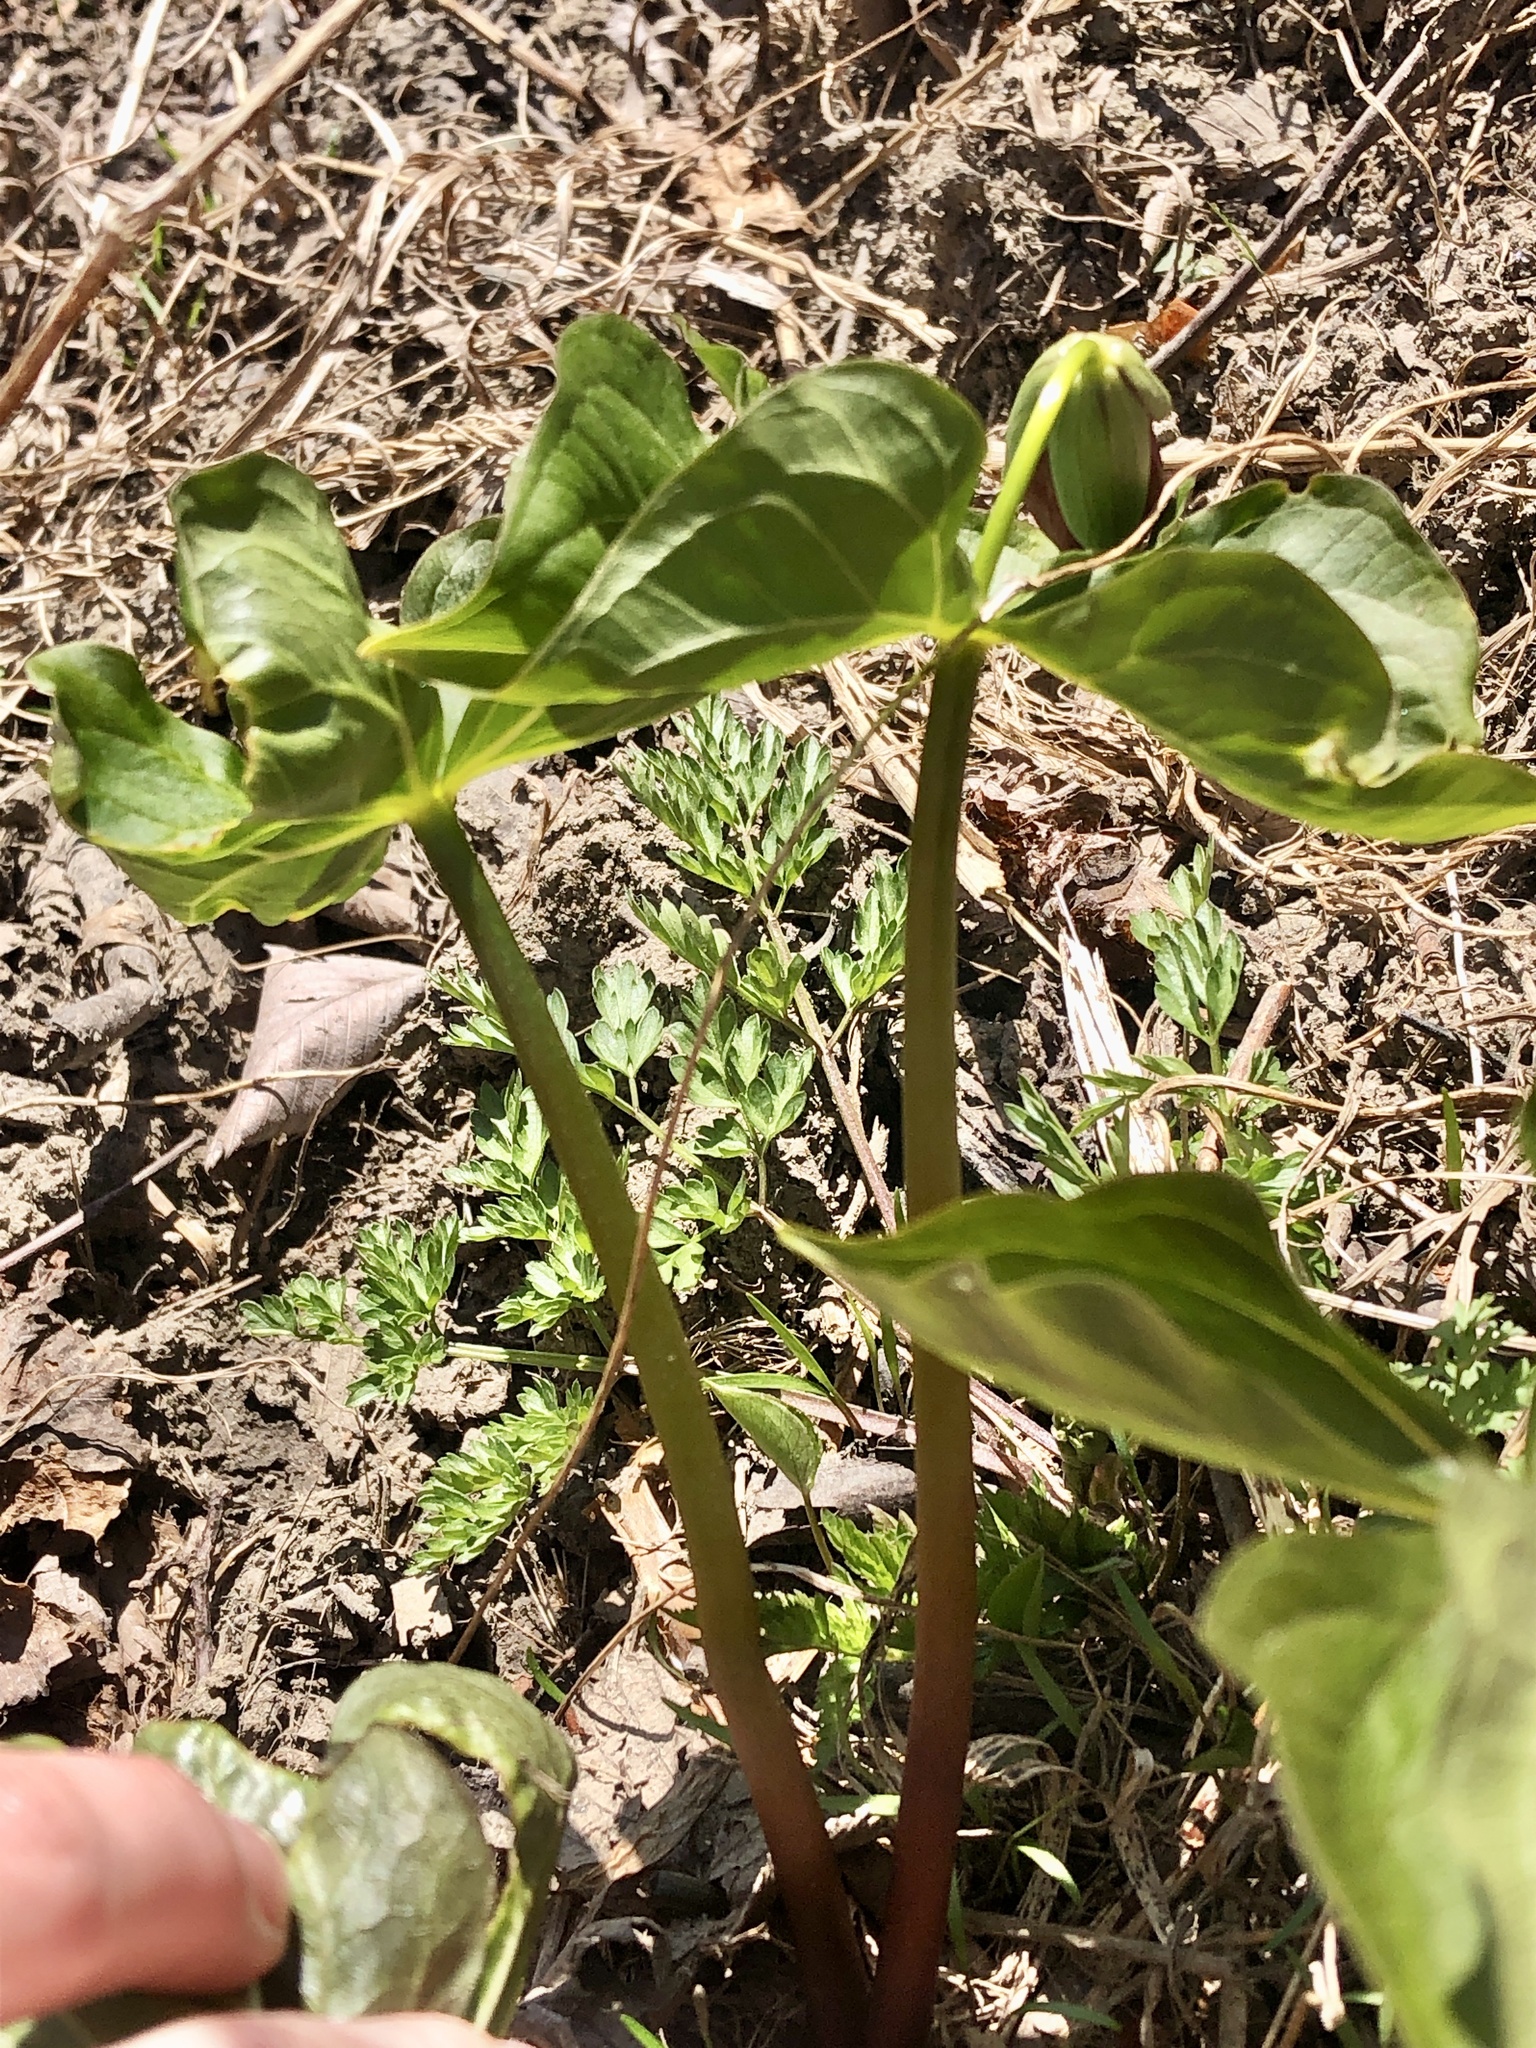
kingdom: Plantae
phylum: Tracheophyta
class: Liliopsida
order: Liliales
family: Melanthiaceae
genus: Trillium
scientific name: Trillium erectum
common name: Purple trillium
